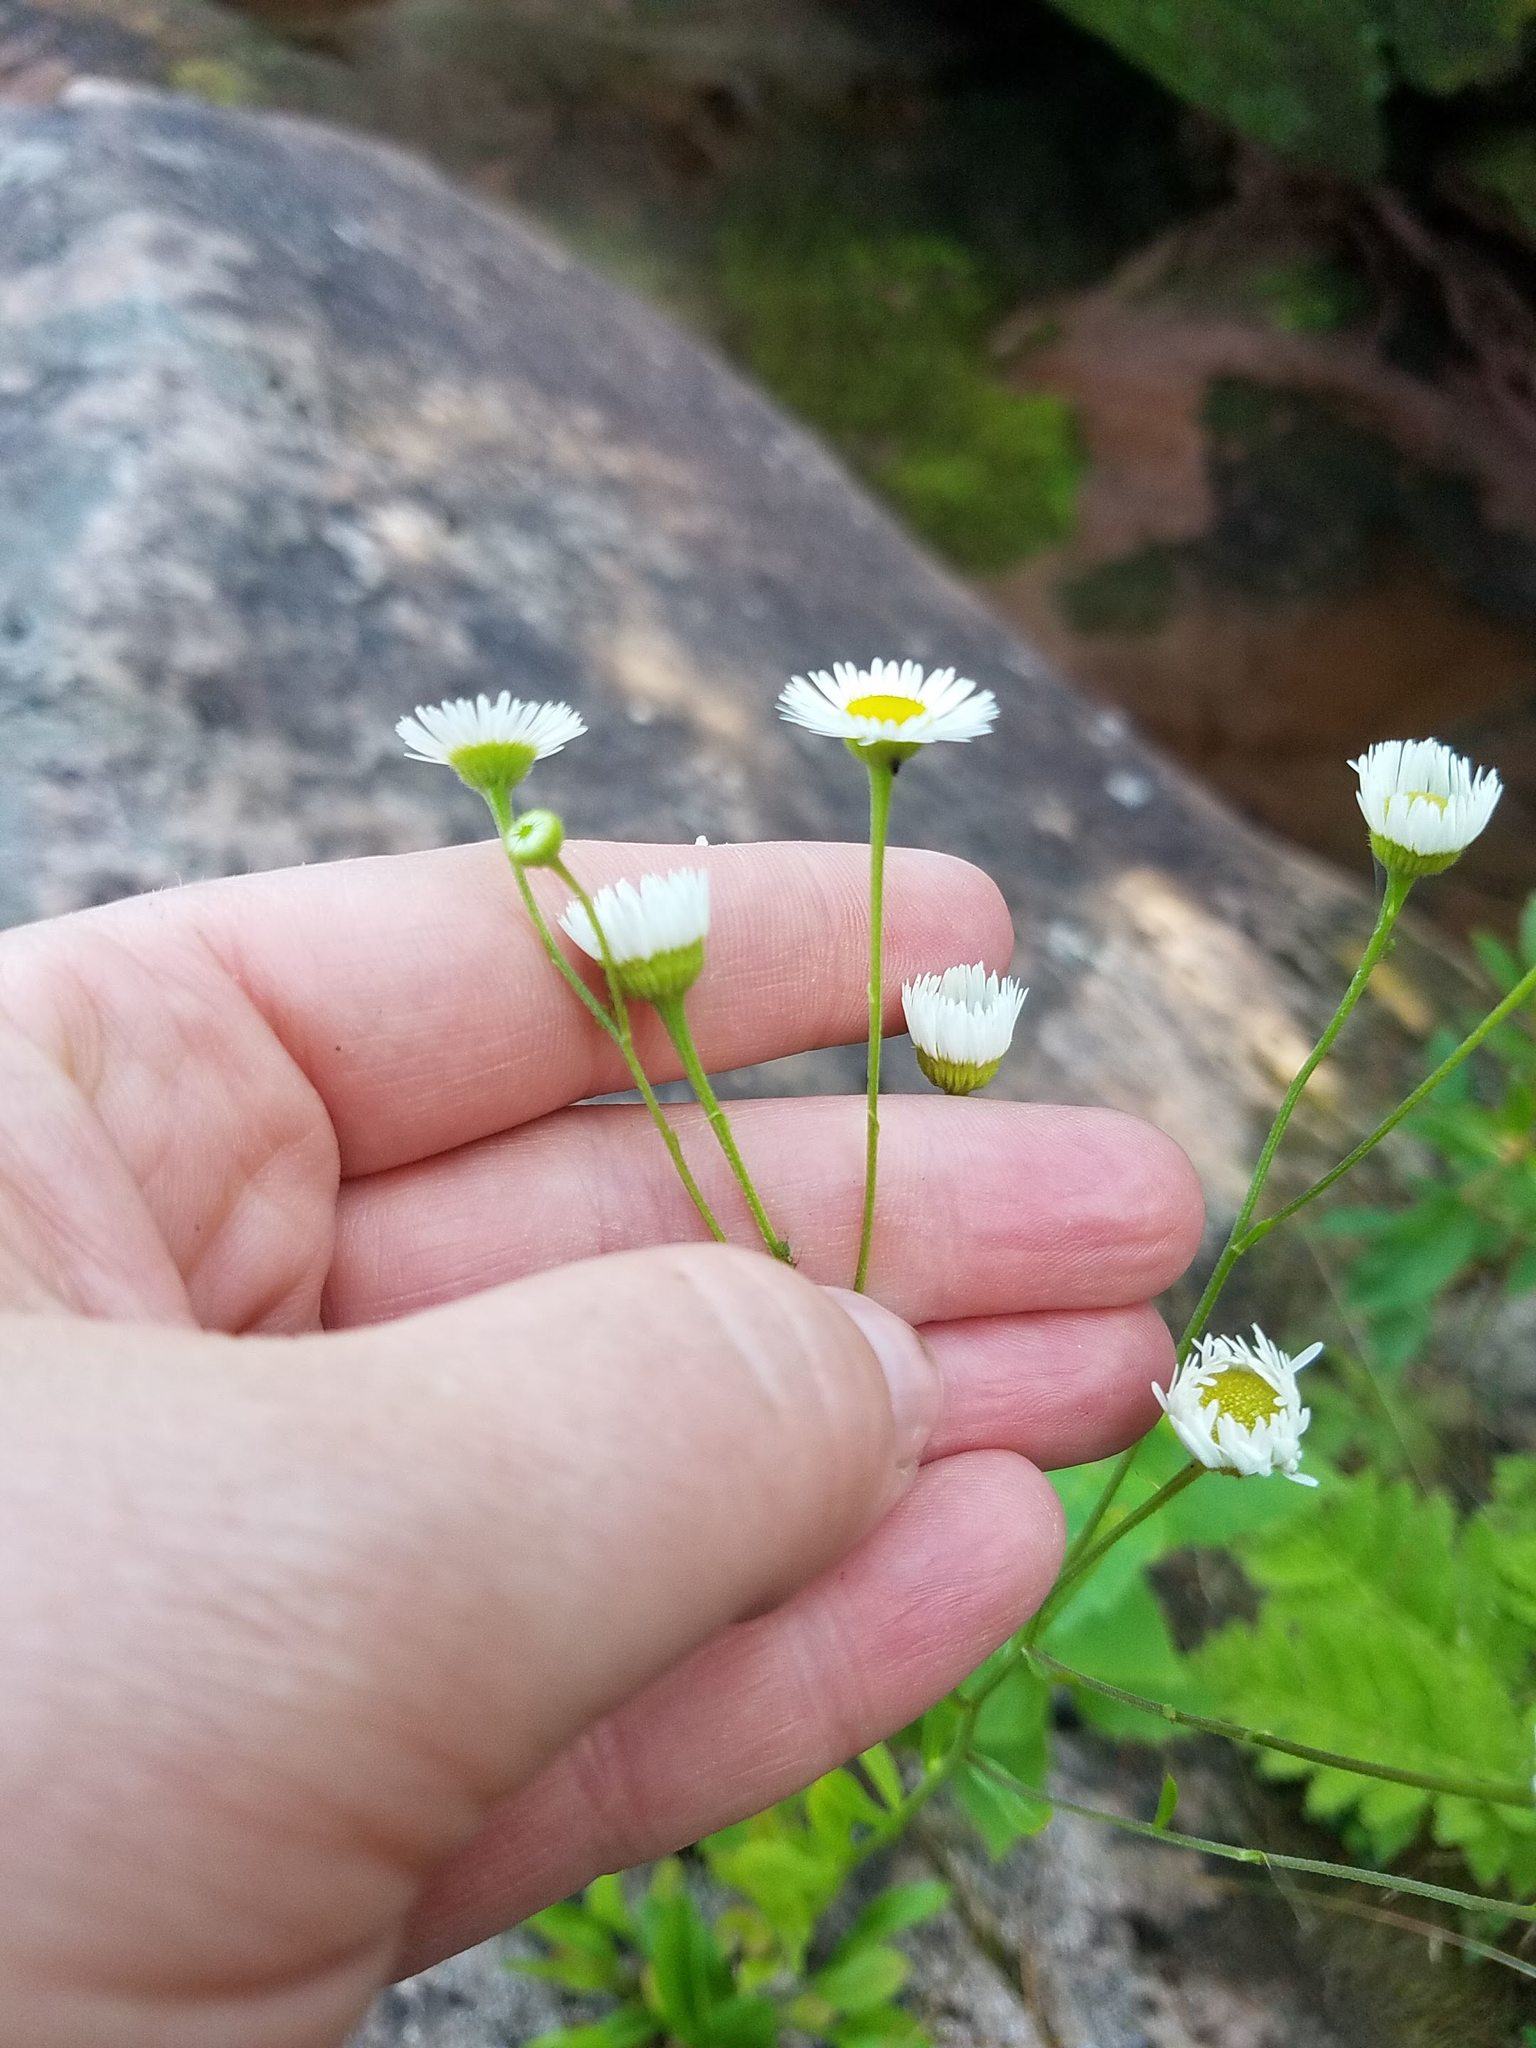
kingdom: Plantae
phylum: Tracheophyta
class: Magnoliopsida
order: Asterales
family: Asteraceae
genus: Erigeron
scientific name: Erigeron strigosus
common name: Common eastern fleabane
